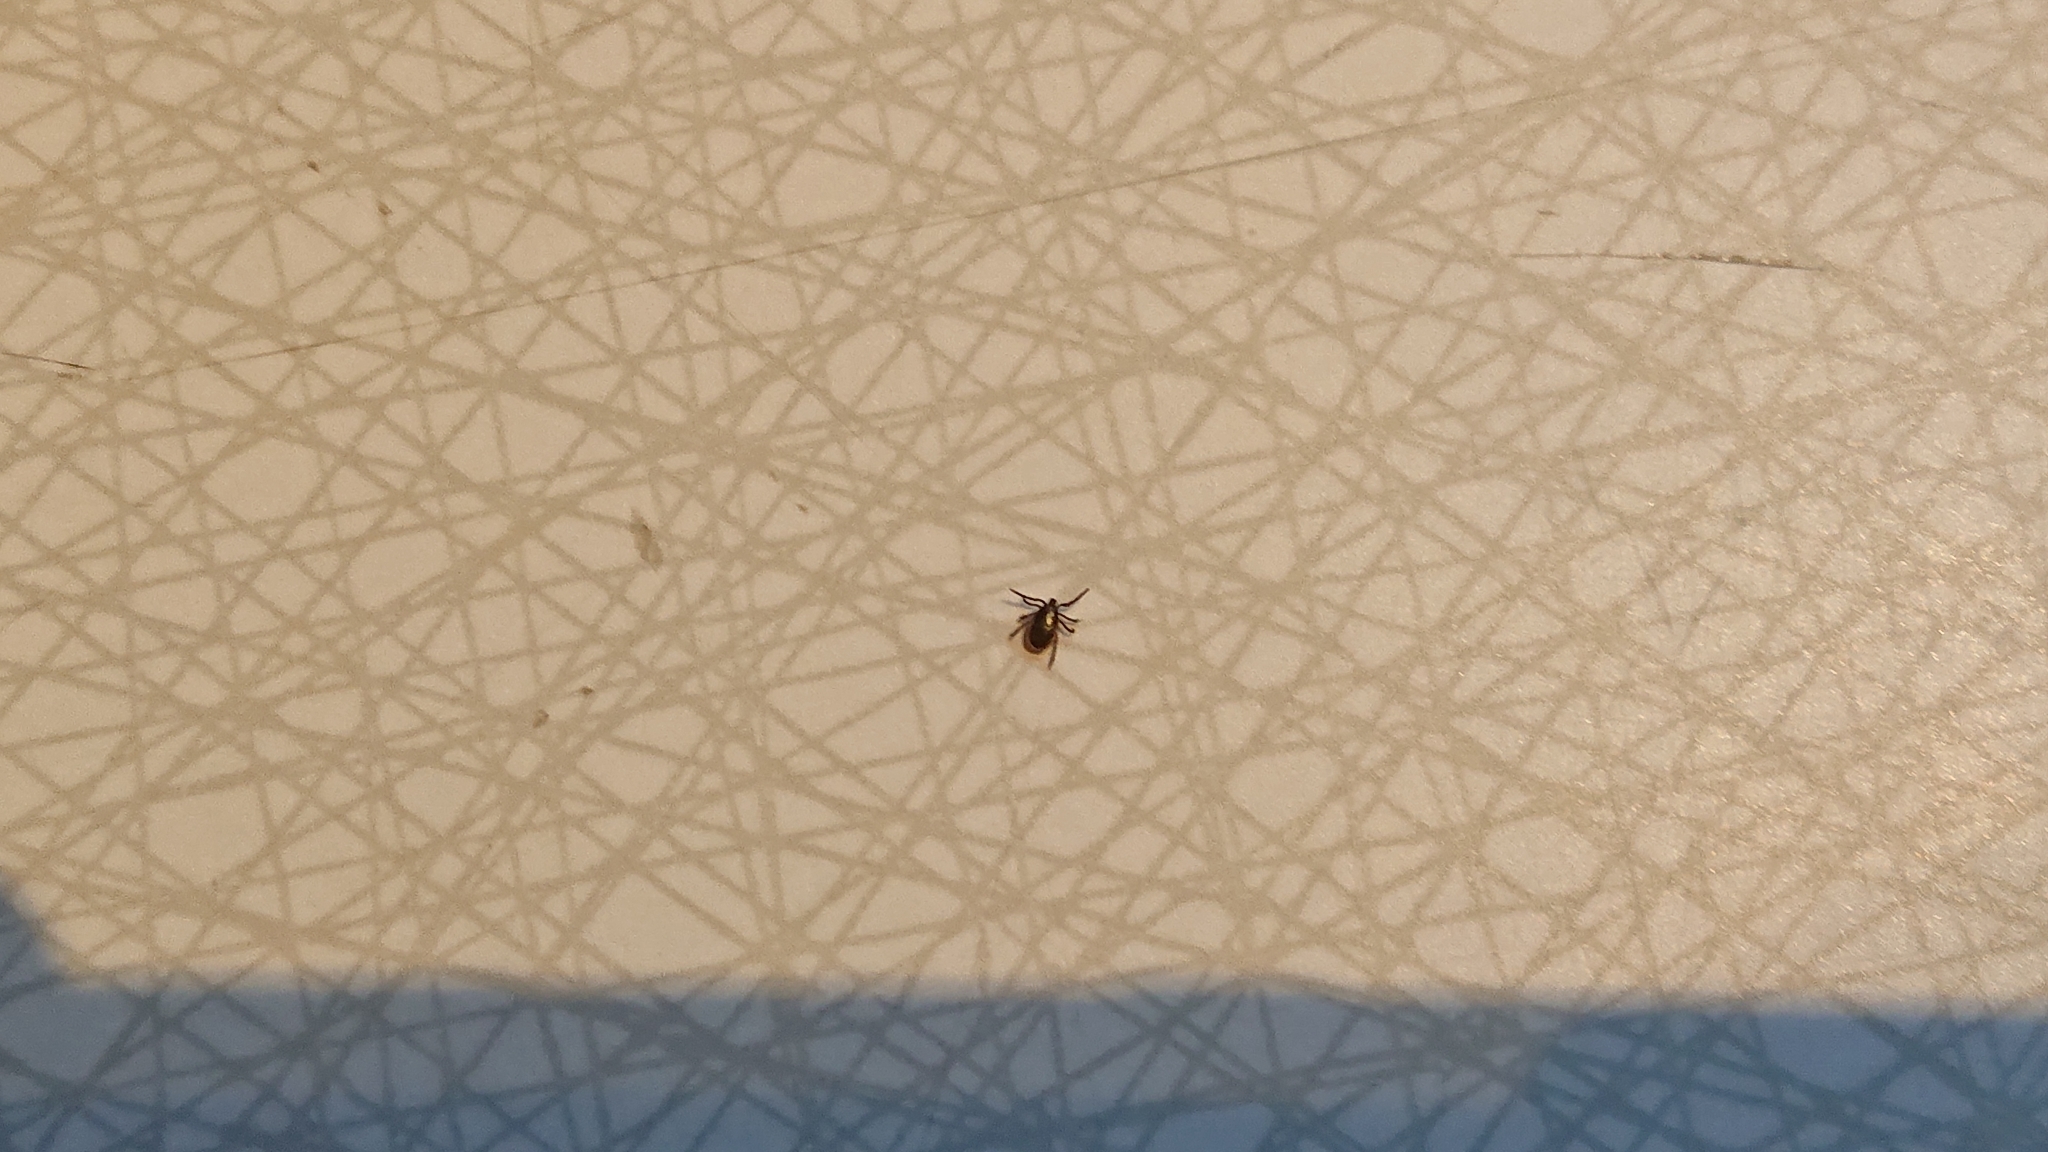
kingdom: Animalia
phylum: Arthropoda
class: Arachnida
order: Ixodida
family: Ixodidae
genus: Ixodes
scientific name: Ixodes ricinus
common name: Castor bean tick
